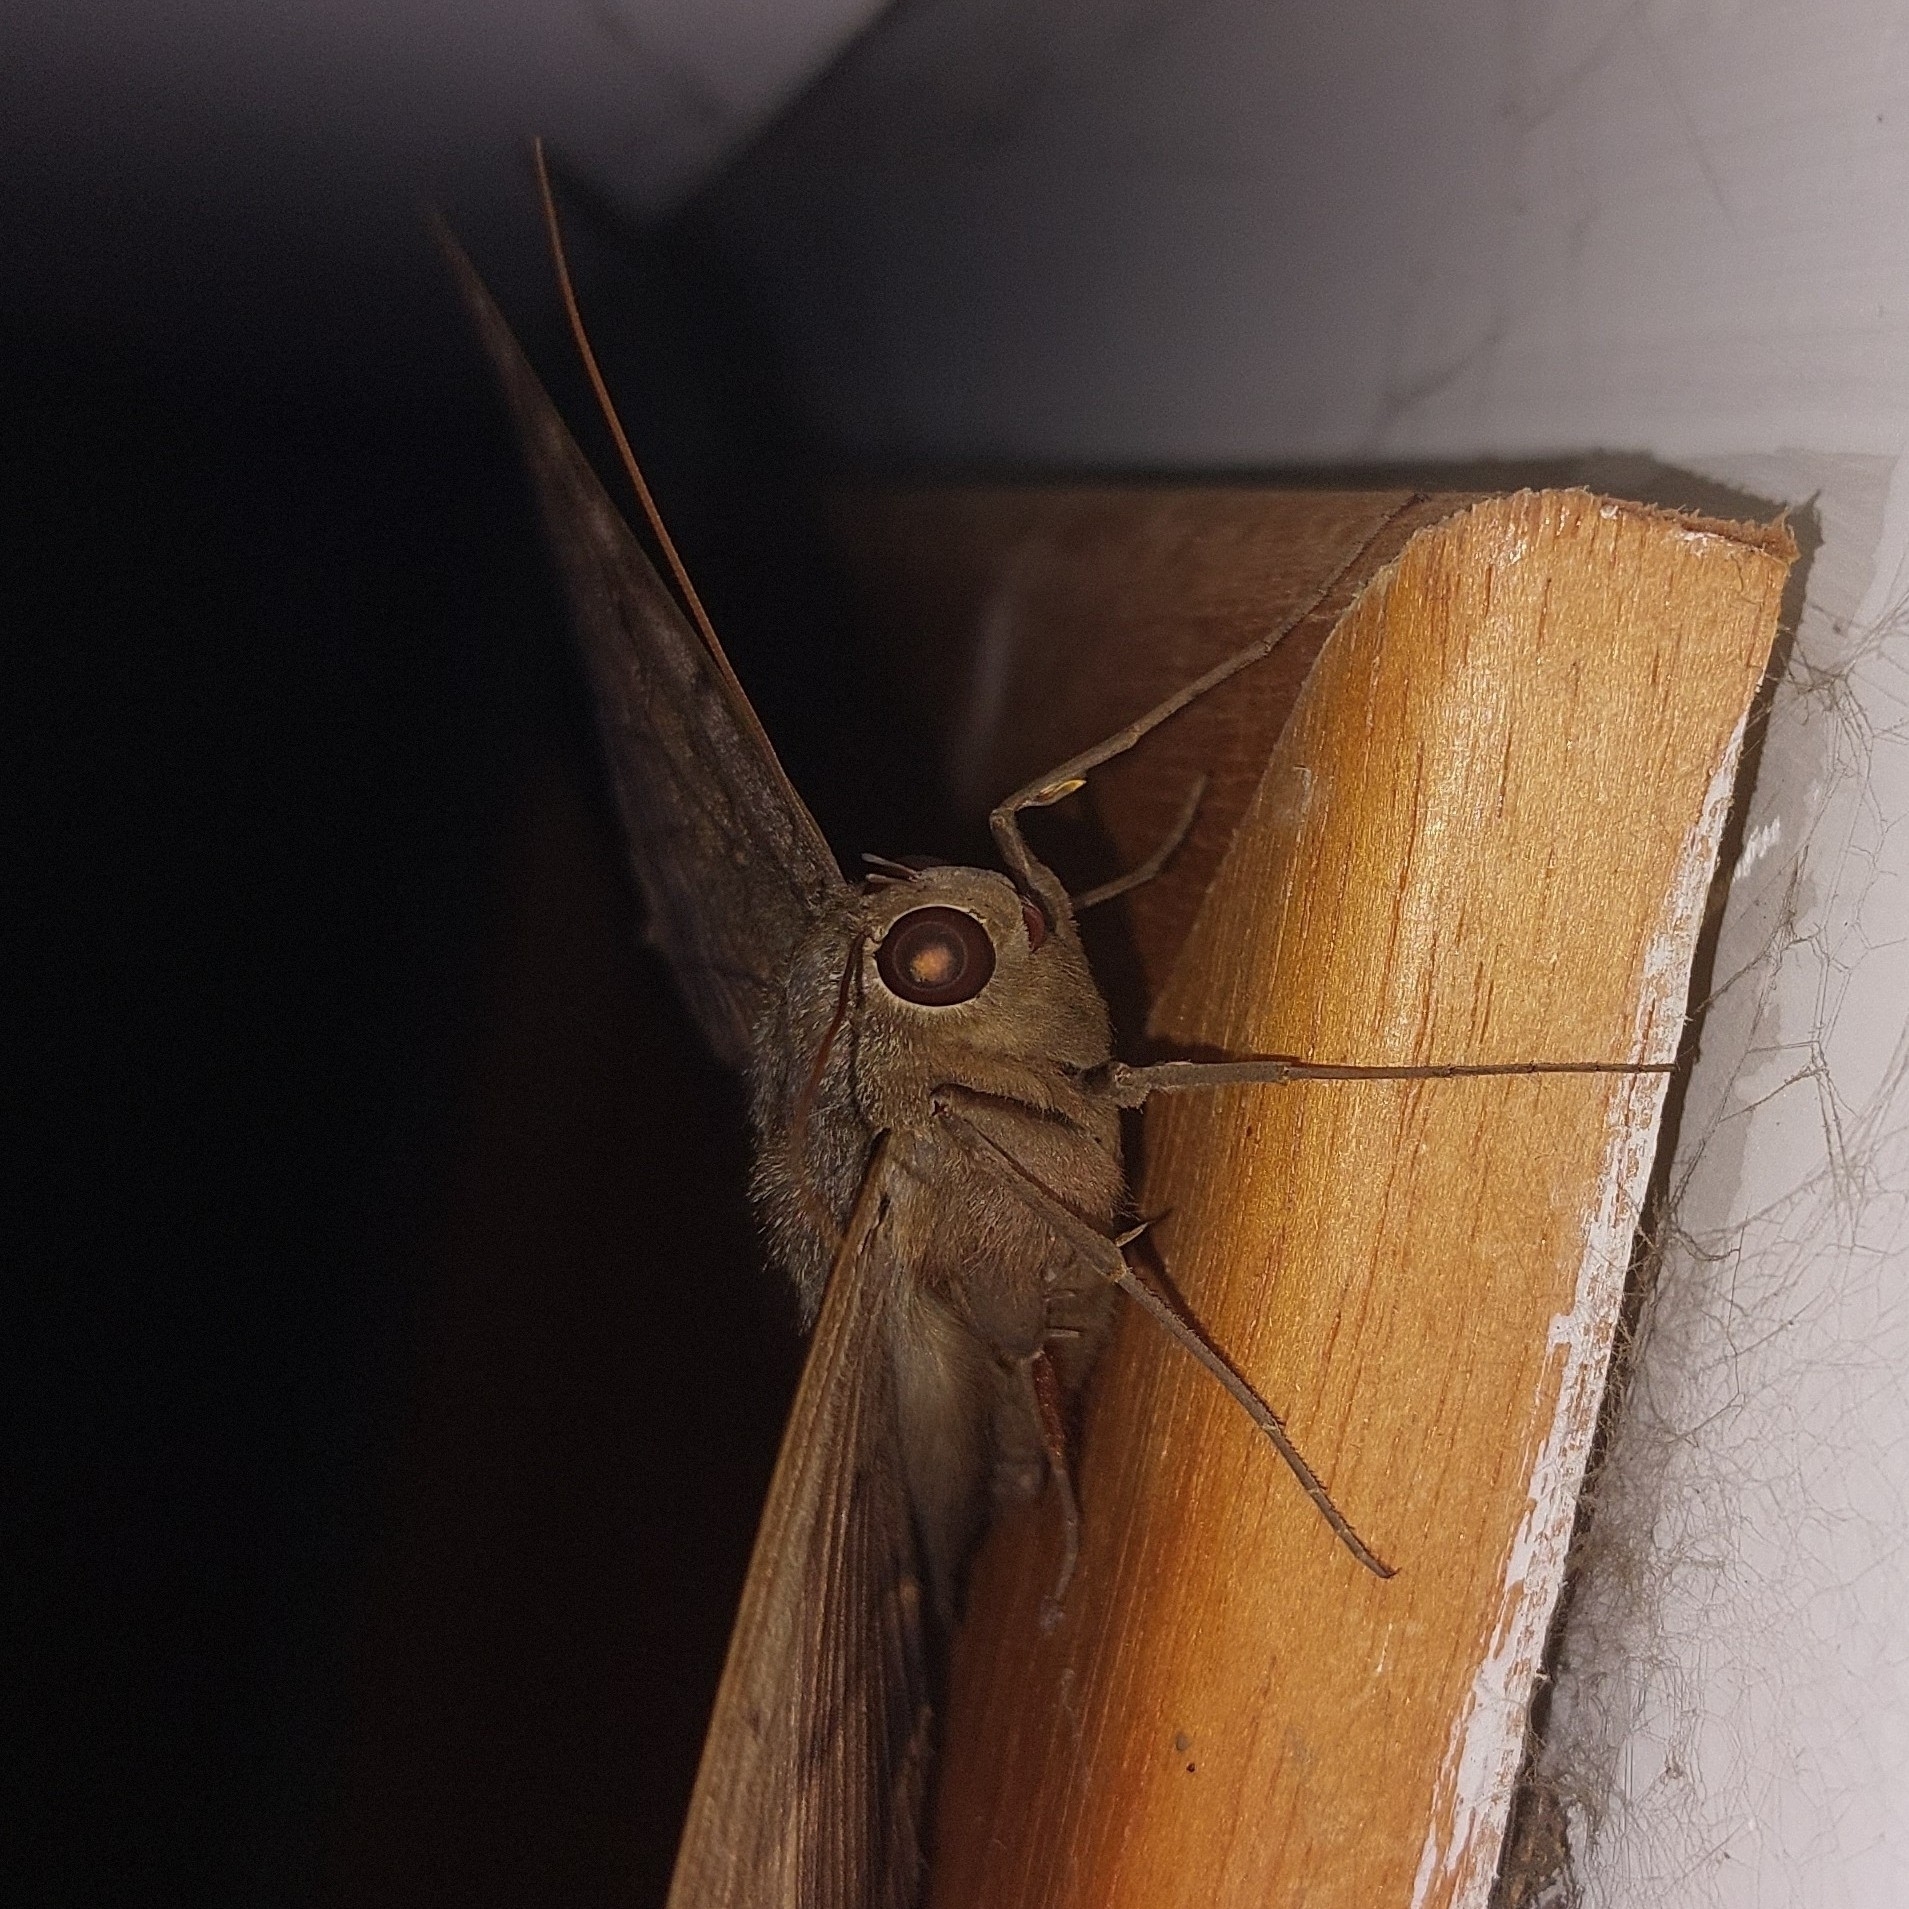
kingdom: Animalia
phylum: Arthropoda
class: Insecta
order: Lepidoptera
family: Erebidae
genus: Ascalapha
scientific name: Ascalapha odorata
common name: Black witch
